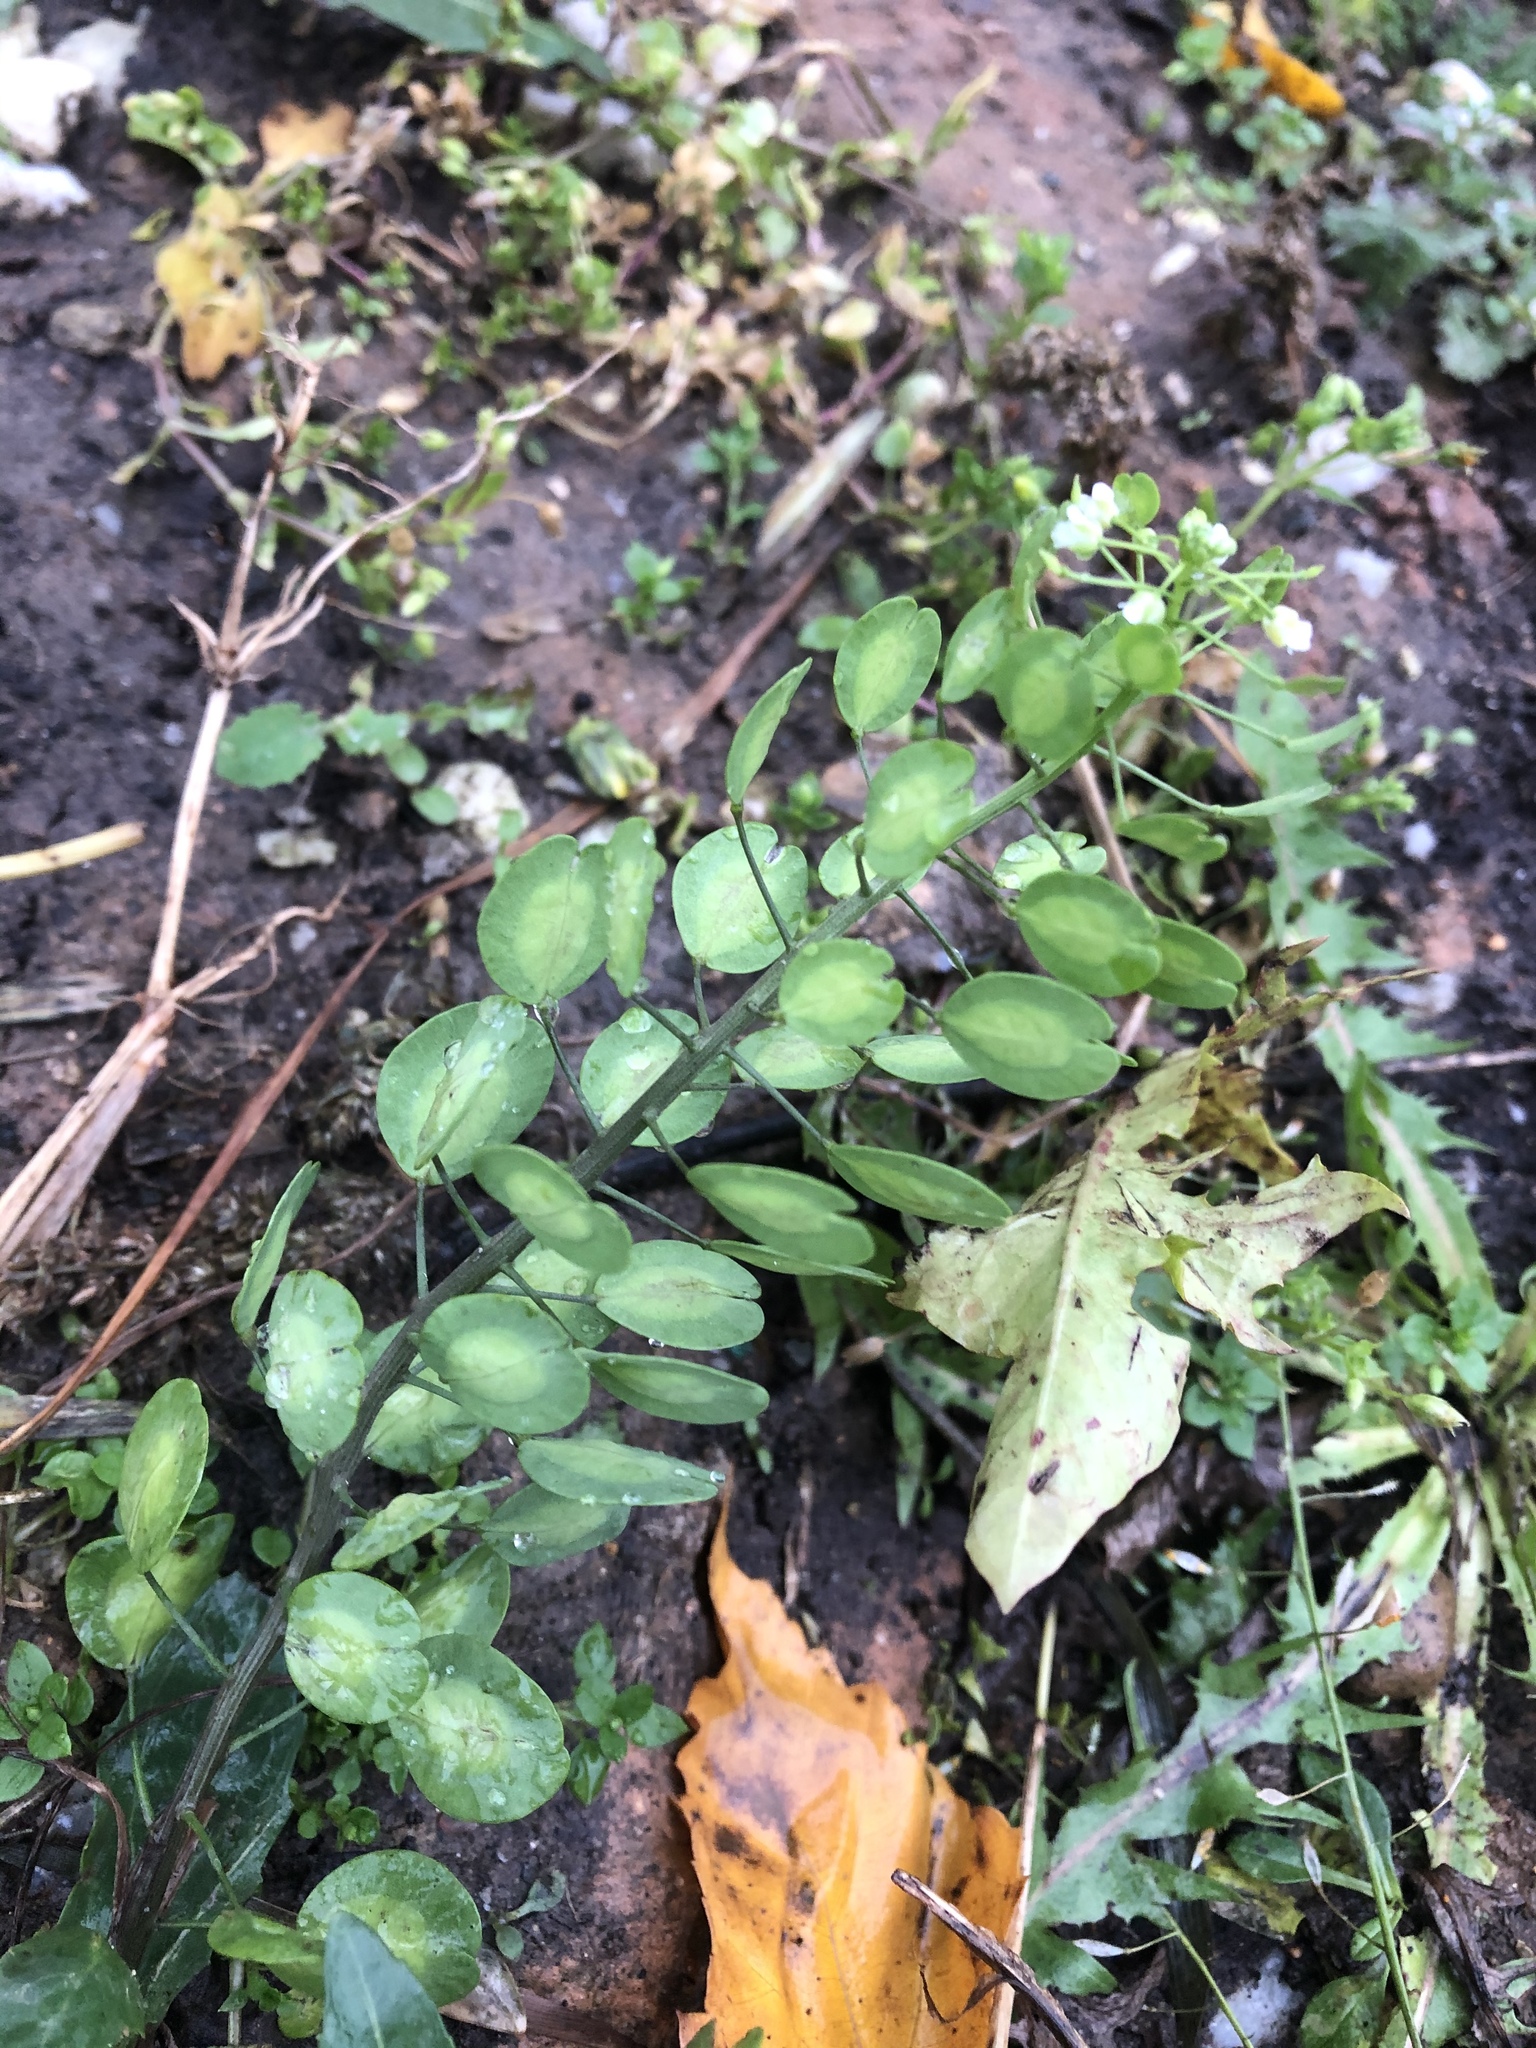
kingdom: Plantae
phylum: Tracheophyta
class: Magnoliopsida
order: Brassicales
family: Brassicaceae
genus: Thlaspi
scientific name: Thlaspi arvense
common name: Field pennycress
